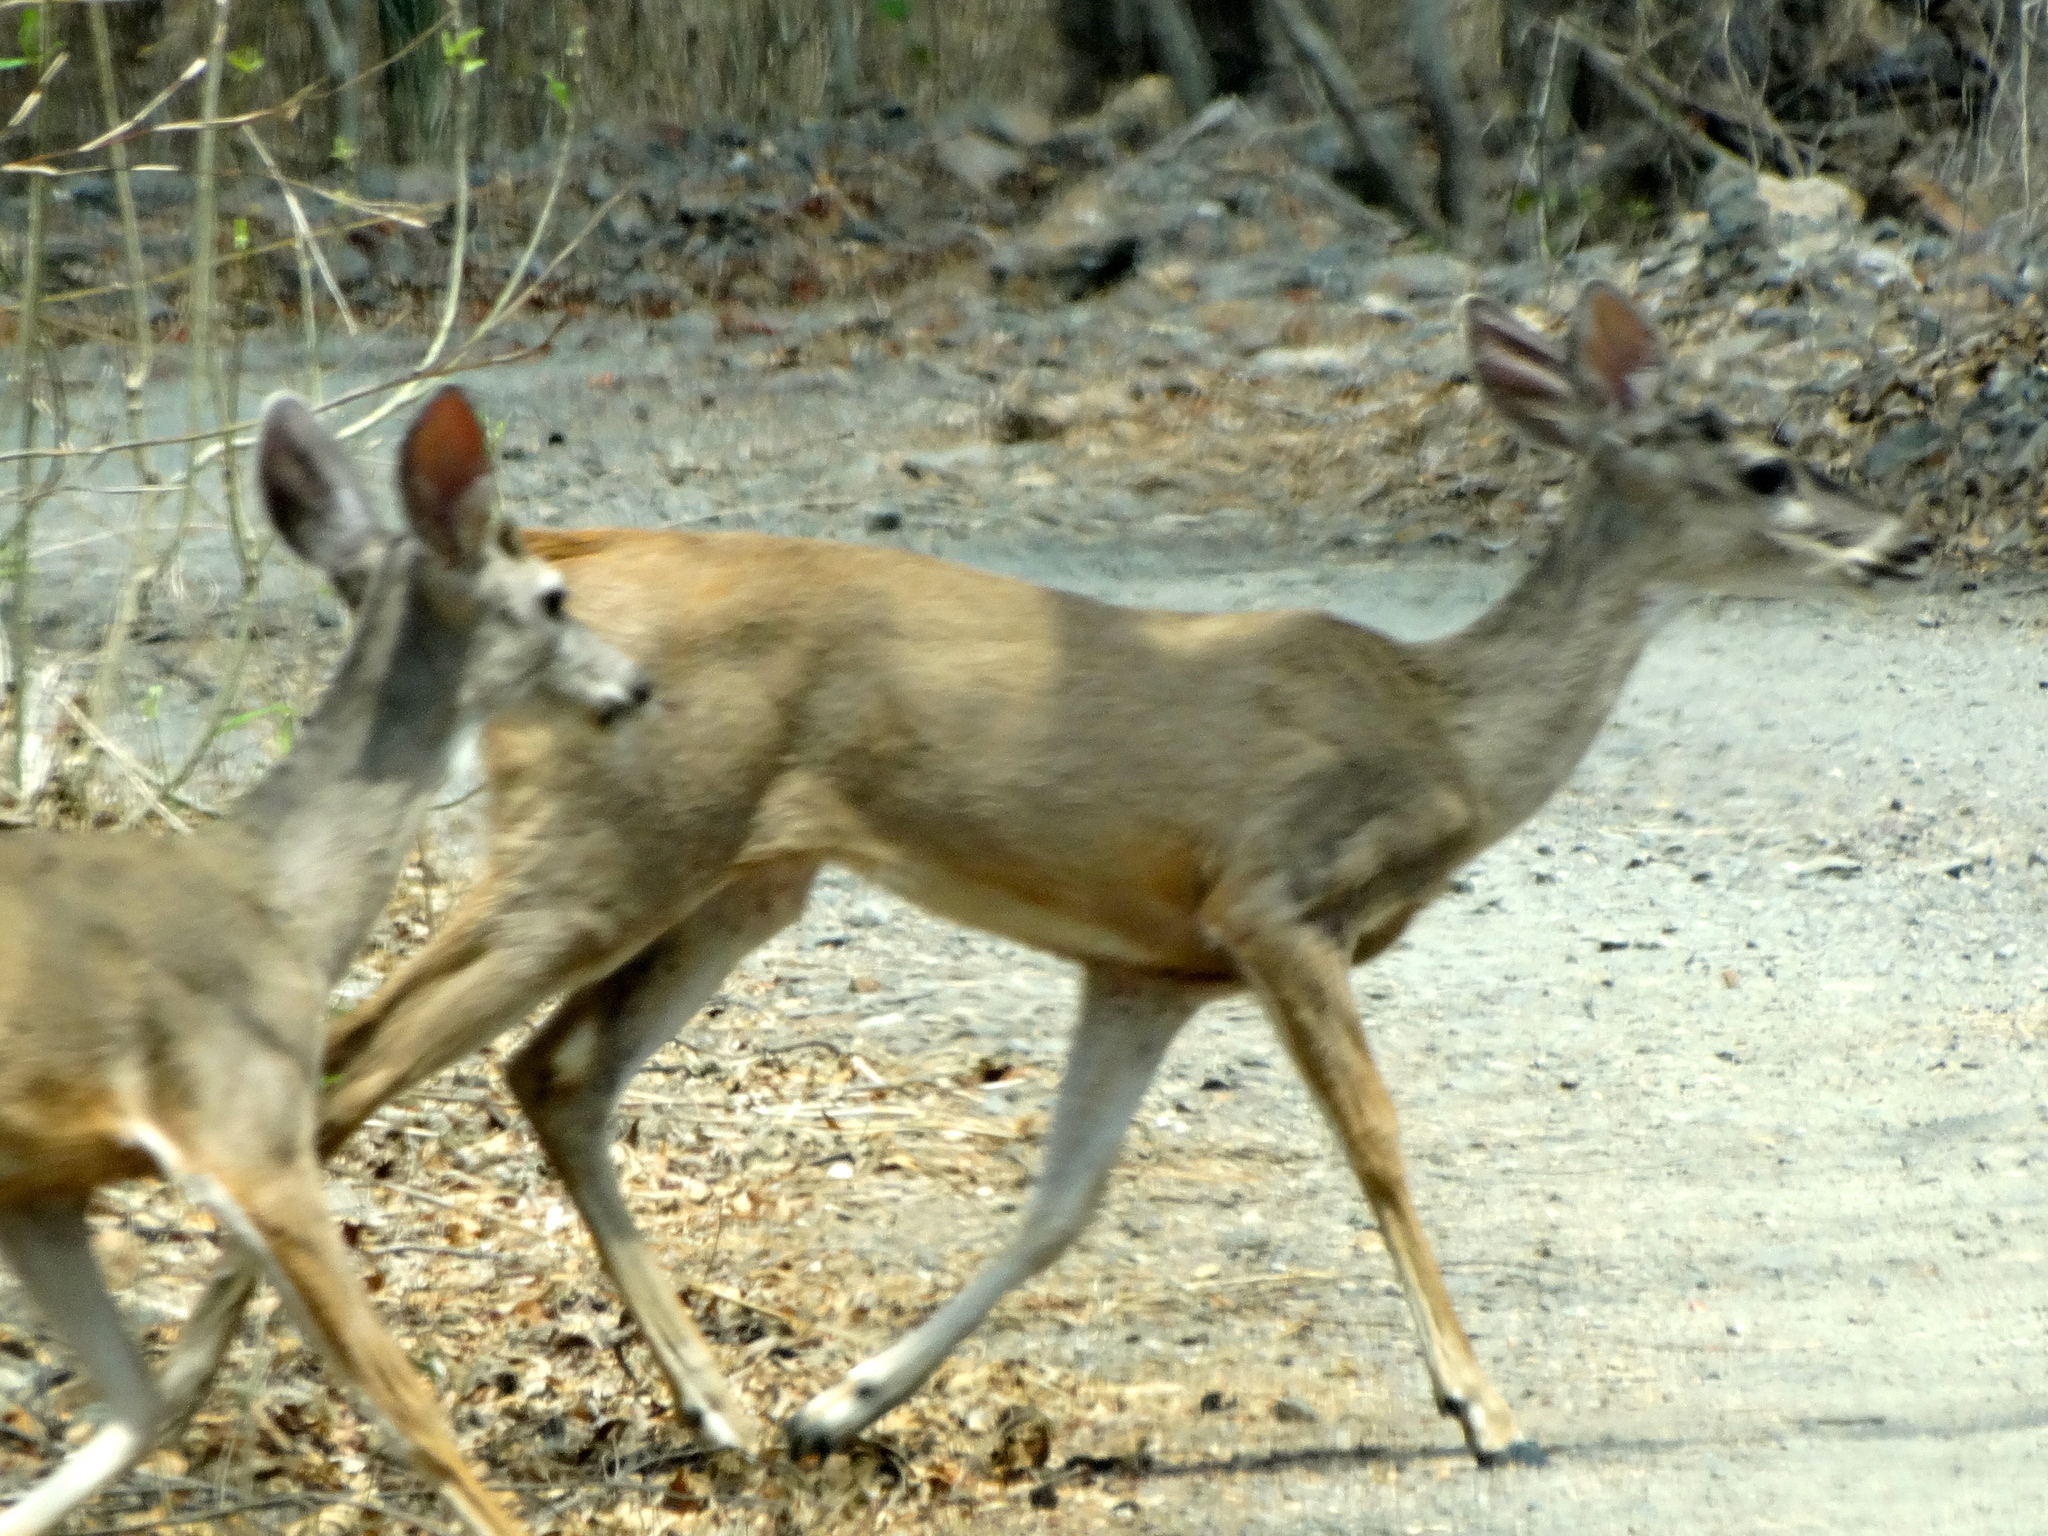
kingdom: Animalia
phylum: Chordata
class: Mammalia
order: Artiodactyla
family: Cervidae
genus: Odocoileus
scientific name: Odocoileus virginianus
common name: White-tailed deer
